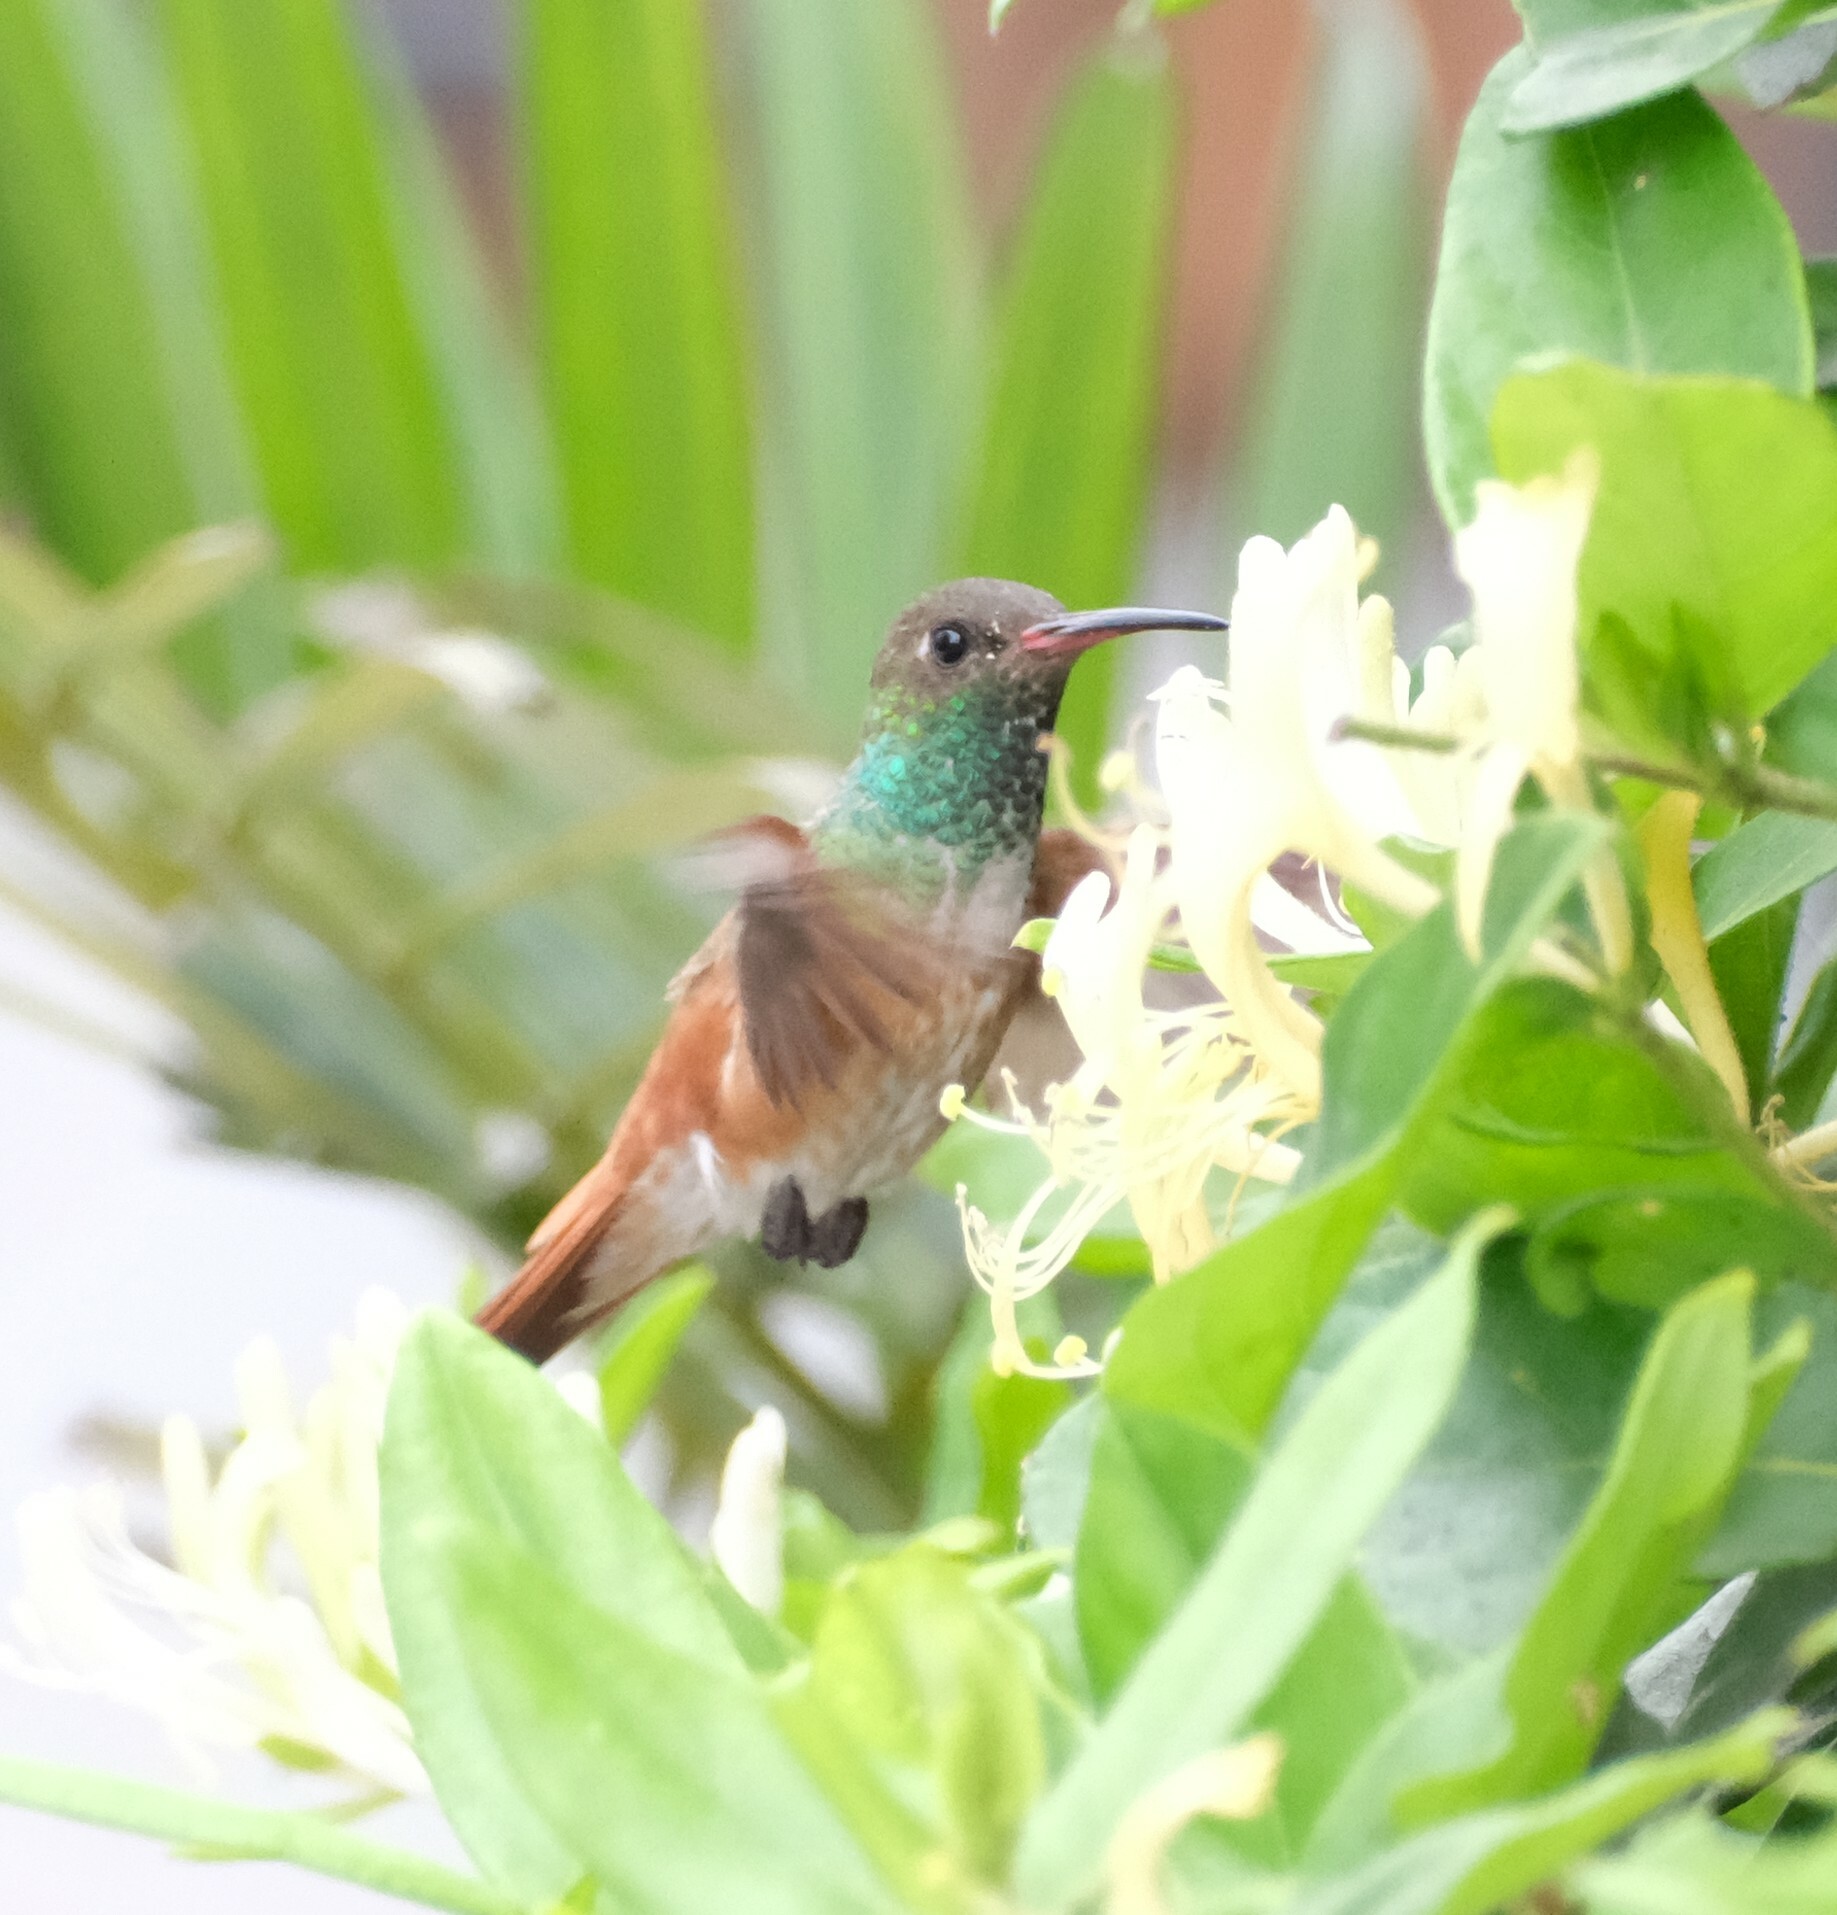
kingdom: Animalia
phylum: Chordata
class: Aves
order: Apodiformes
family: Trochilidae
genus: Amazilis
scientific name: Amazilis amazilia
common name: Amazilia hummingbird
